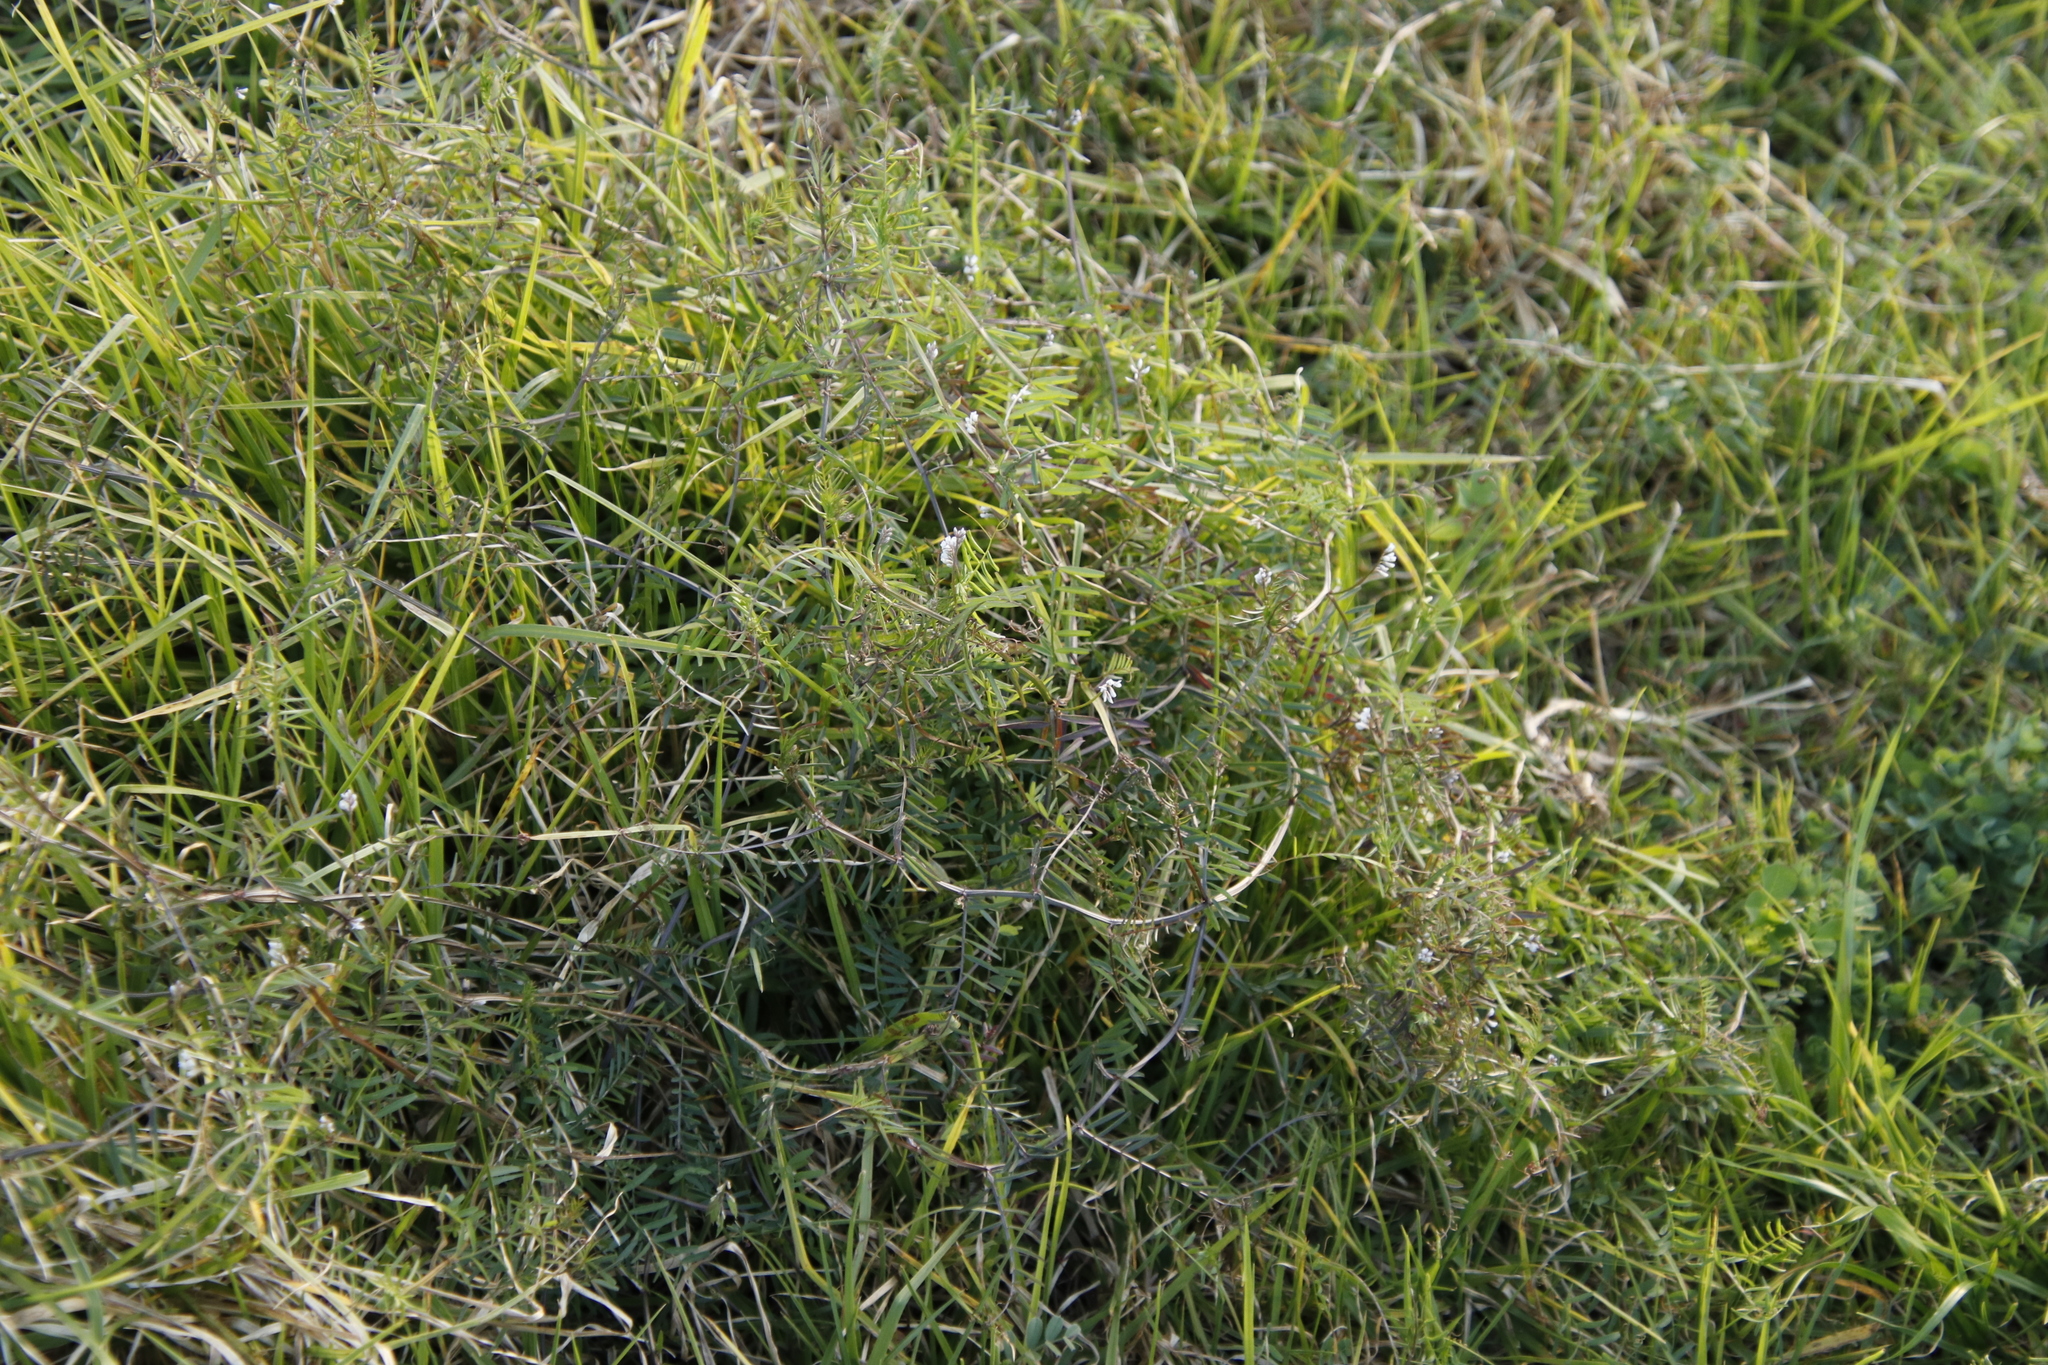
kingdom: Plantae
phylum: Tracheophyta
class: Magnoliopsida
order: Fabales
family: Fabaceae
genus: Vicia
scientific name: Vicia hirsuta
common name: Tiny vetch
